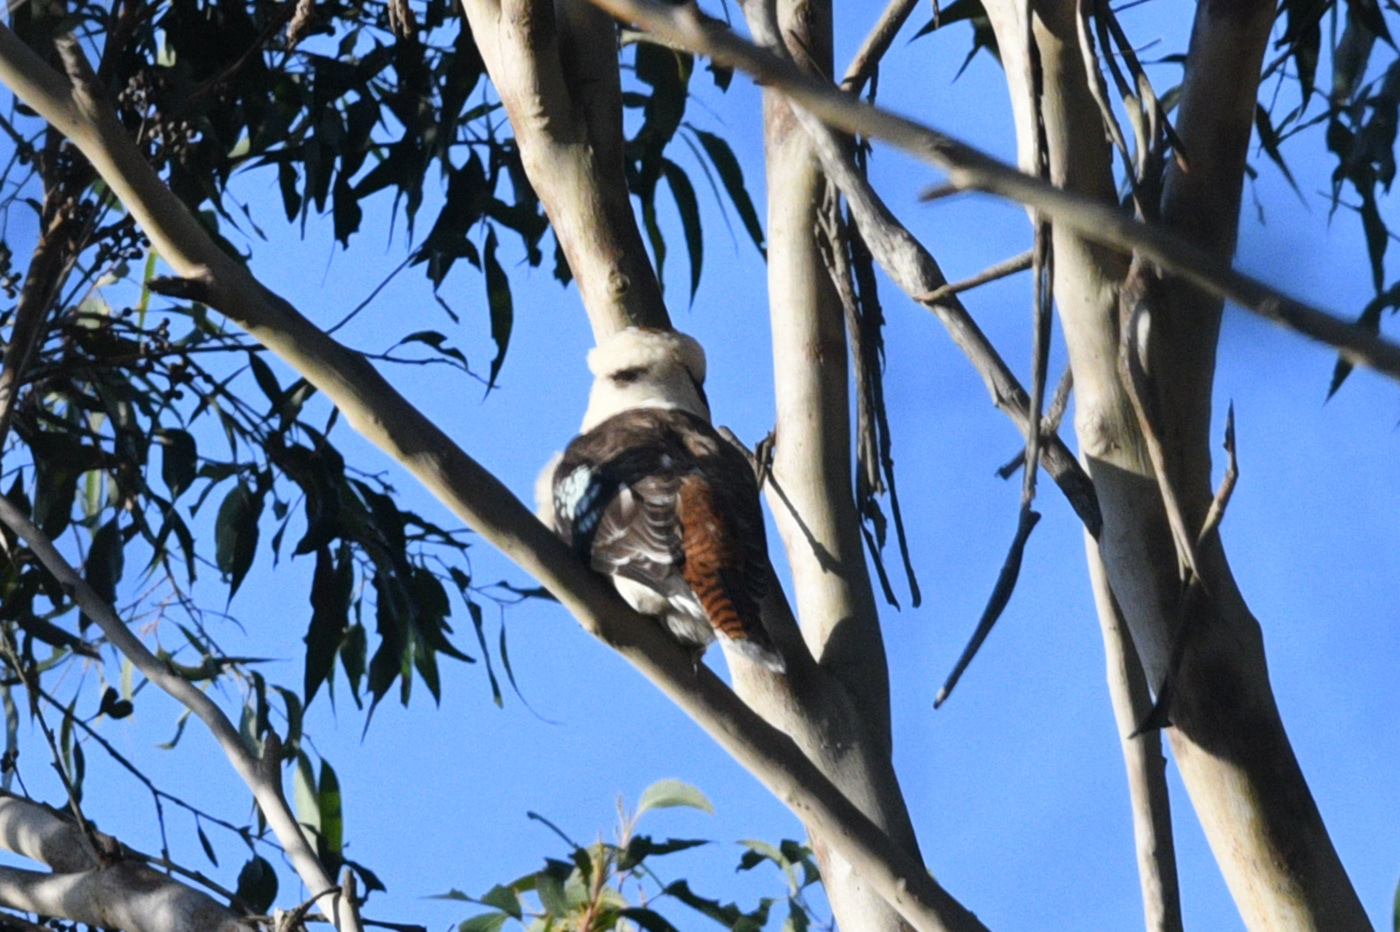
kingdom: Animalia
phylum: Chordata
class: Aves
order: Coraciiformes
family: Alcedinidae
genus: Dacelo
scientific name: Dacelo novaeguineae
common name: Laughing kookaburra
